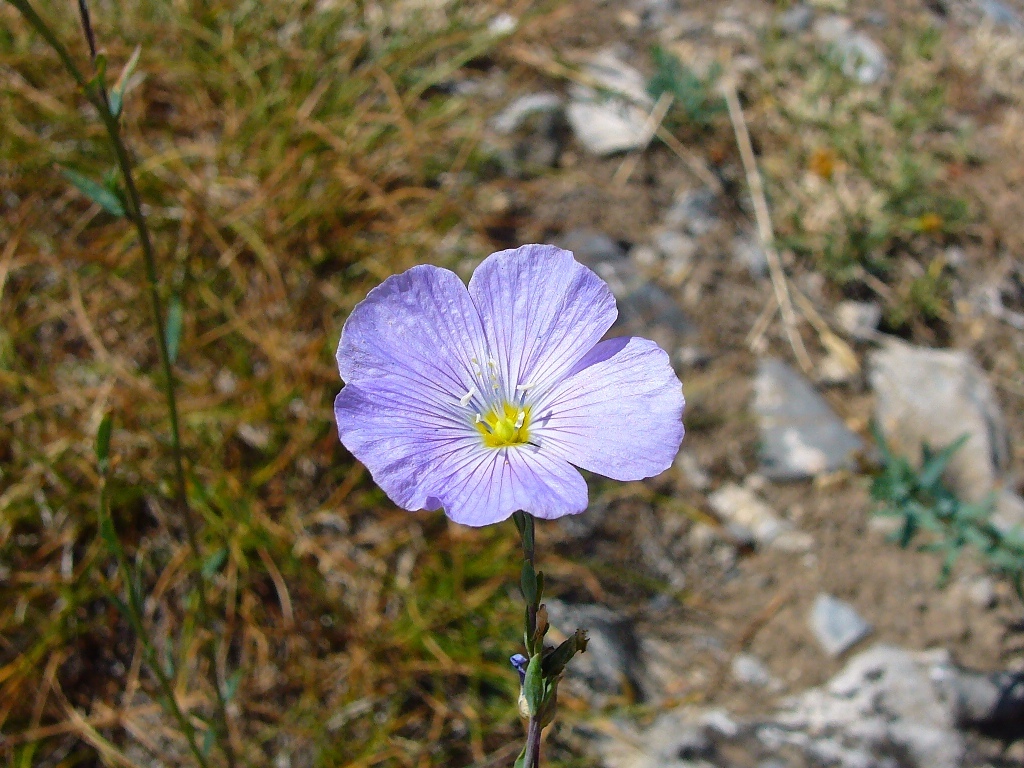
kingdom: Plantae
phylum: Tracheophyta
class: Magnoliopsida
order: Malpighiales
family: Linaceae
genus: Linum
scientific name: Linum lewisii
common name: Prairie flax
